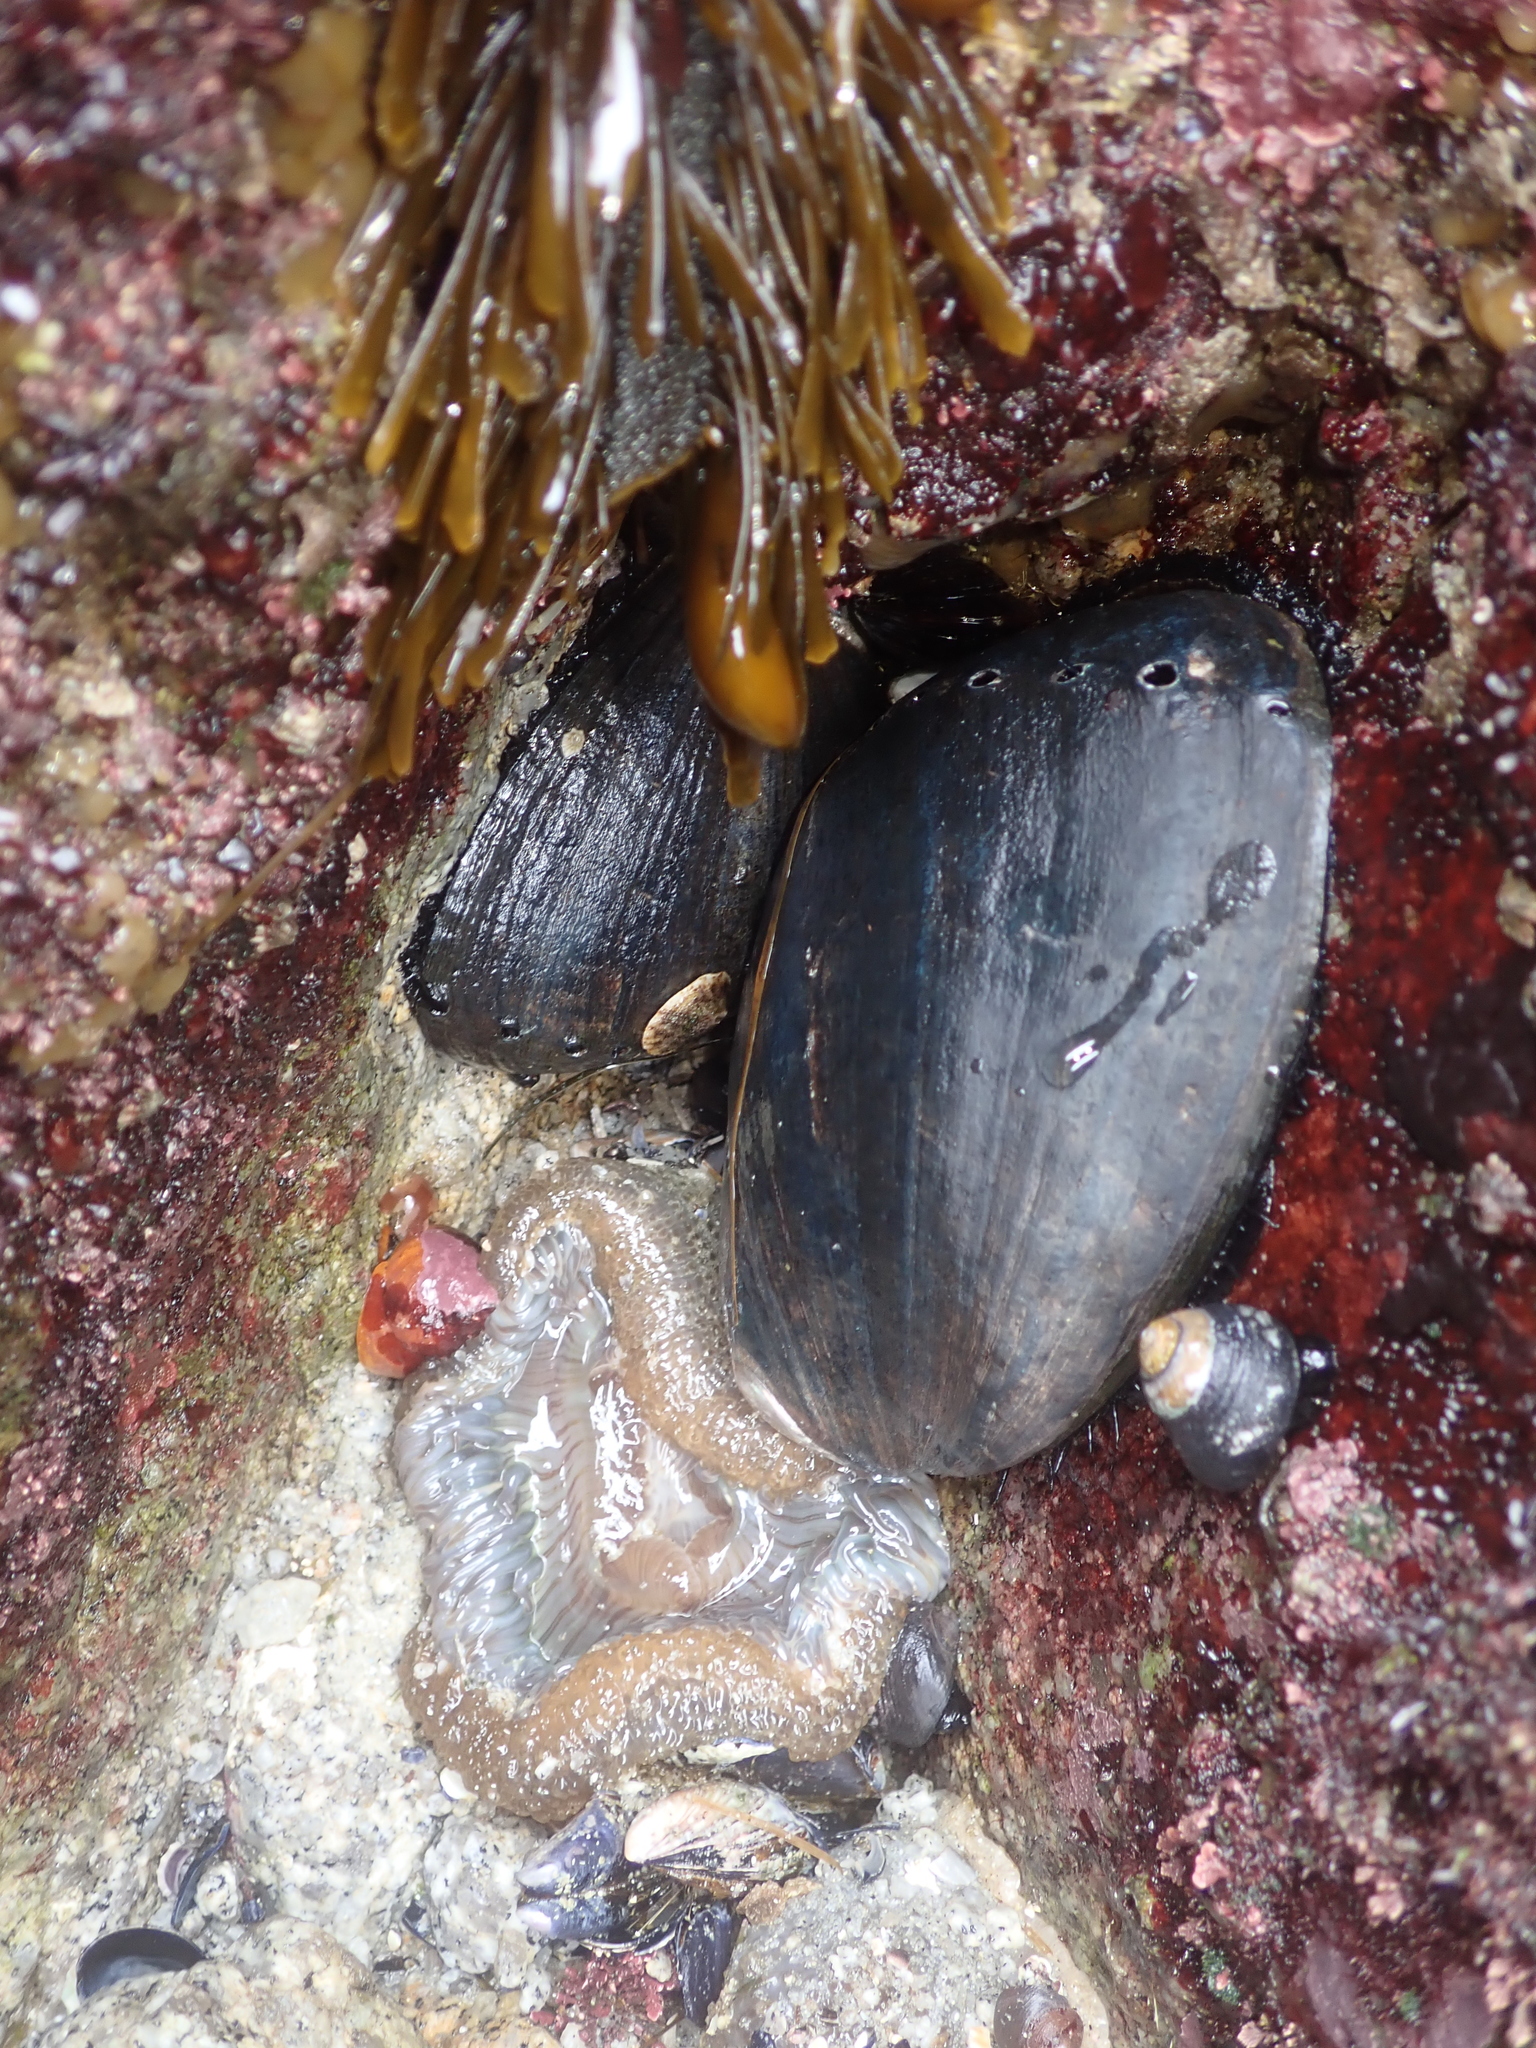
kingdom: Animalia
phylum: Mollusca
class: Gastropoda
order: Lepetellida
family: Haliotidae
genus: Haliotis
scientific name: Haliotis cracherodii
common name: Black abalone
